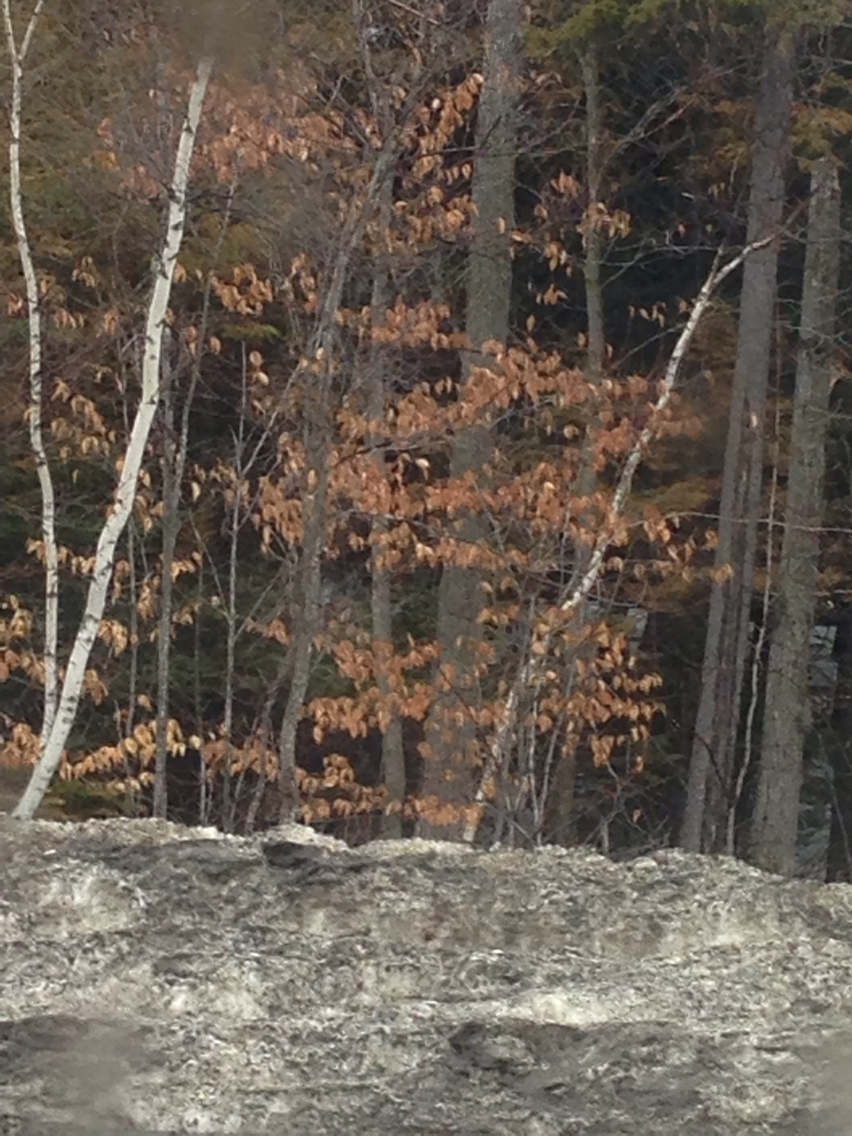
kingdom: Plantae
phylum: Tracheophyta
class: Magnoliopsida
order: Fagales
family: Fagaceae
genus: Fagus
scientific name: Fagus grandifolia
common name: American beech
